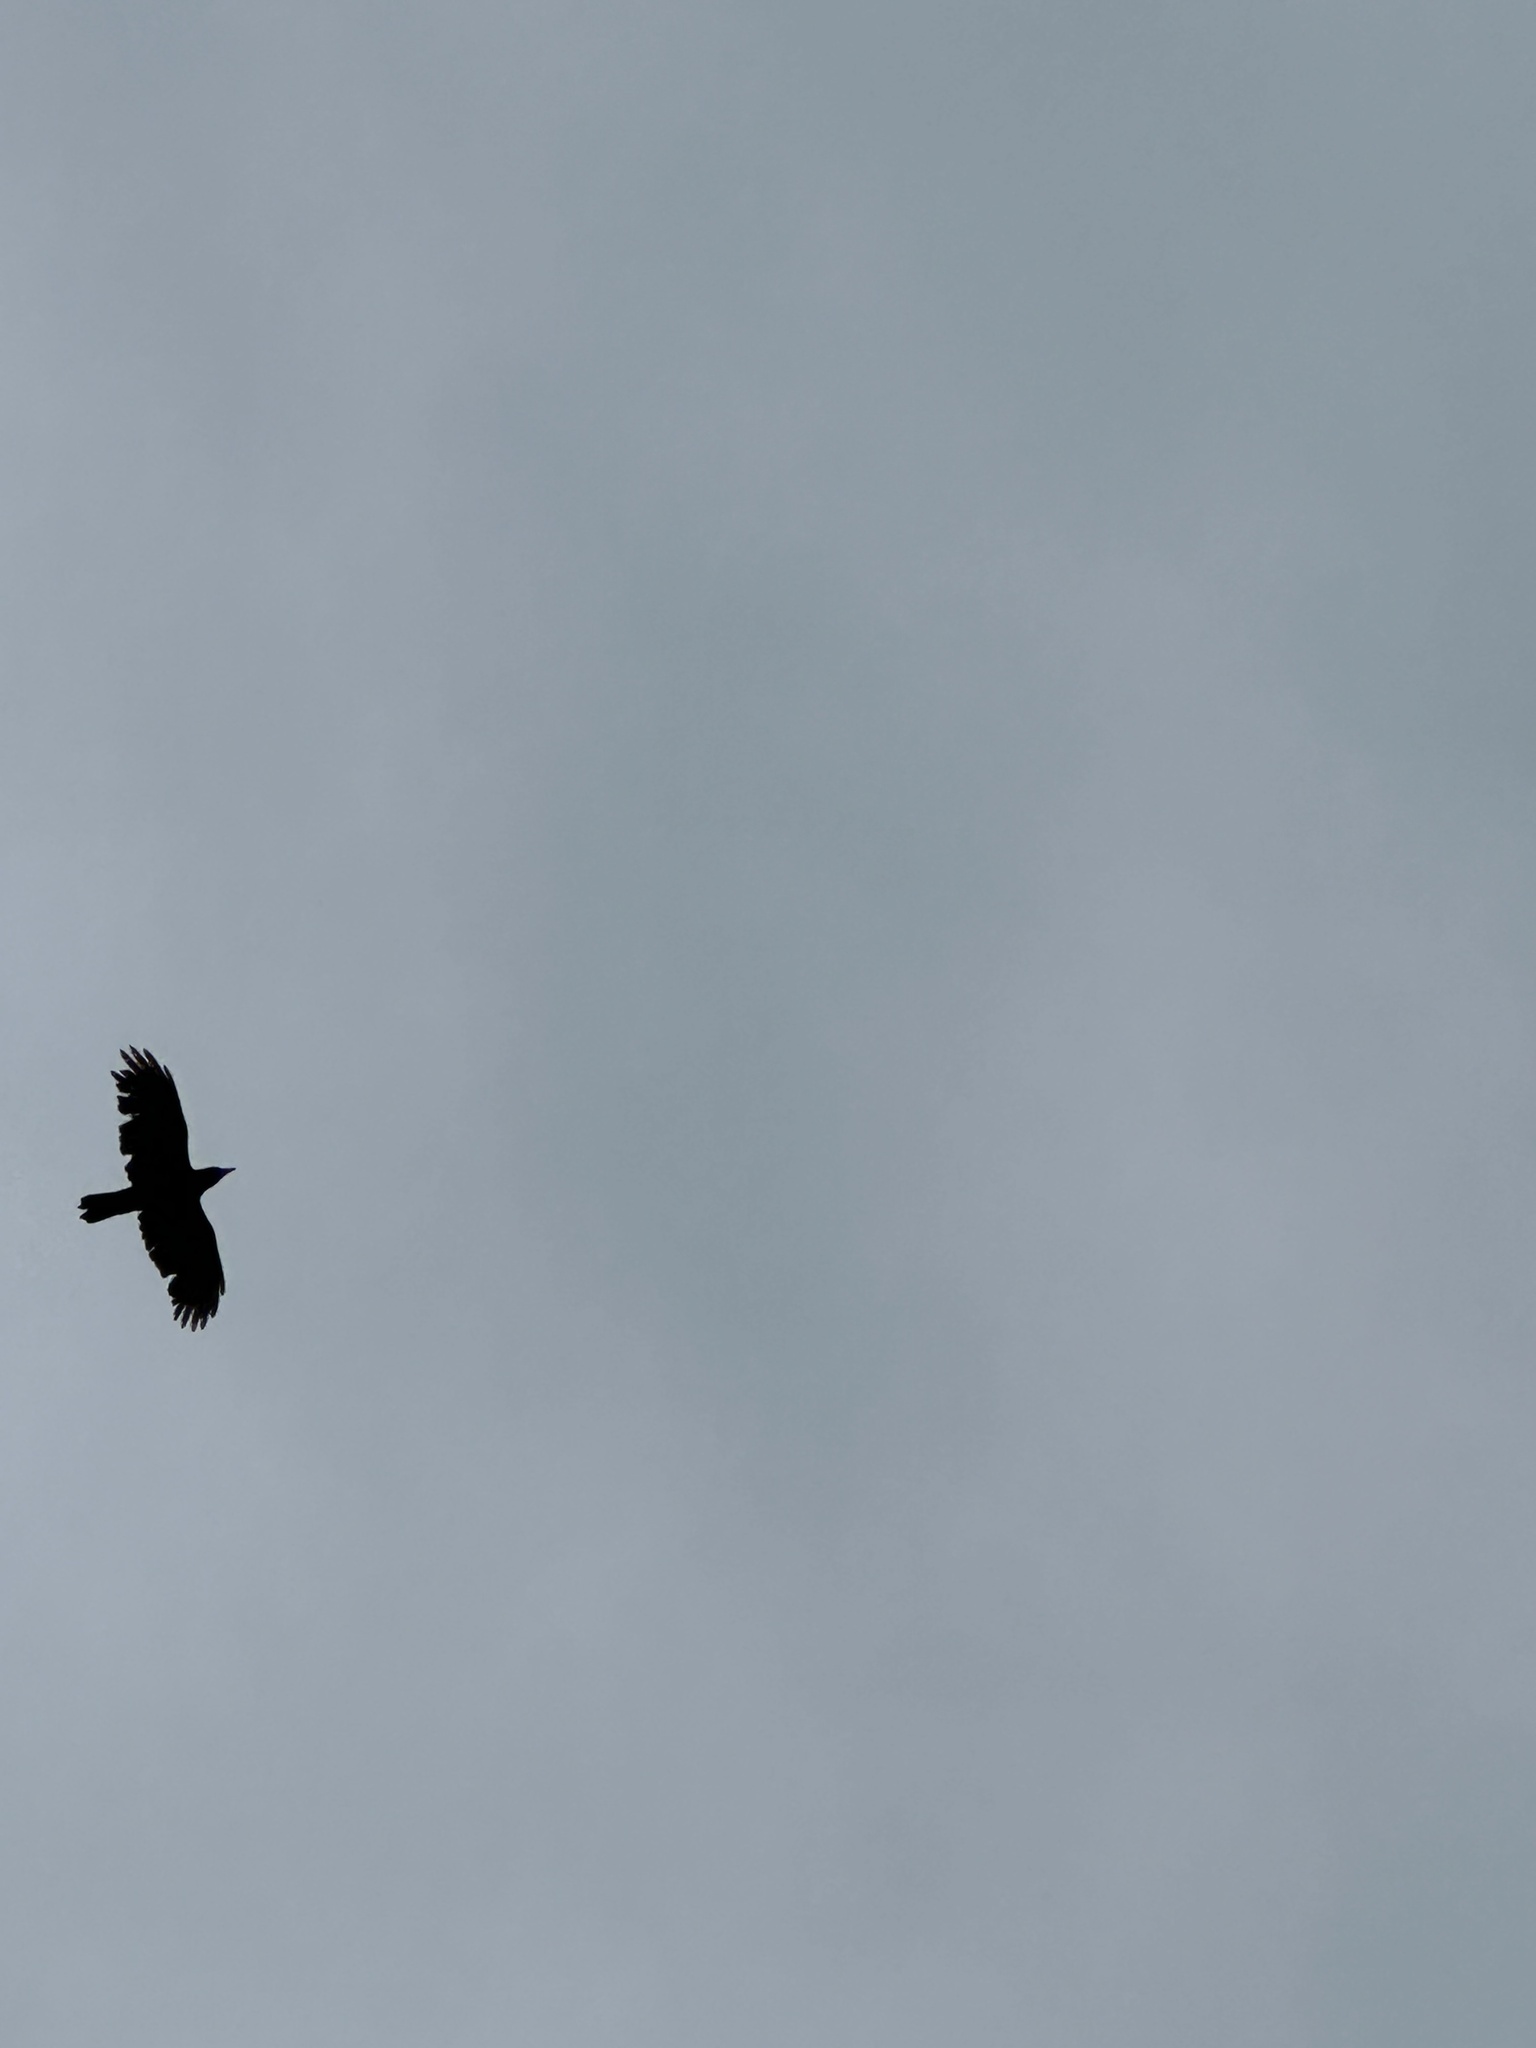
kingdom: Animalia
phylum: Chordata
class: Aves
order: Passeriformes
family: Corvidae
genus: Corvus
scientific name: Corvus brachyrhynchos
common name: American crow
